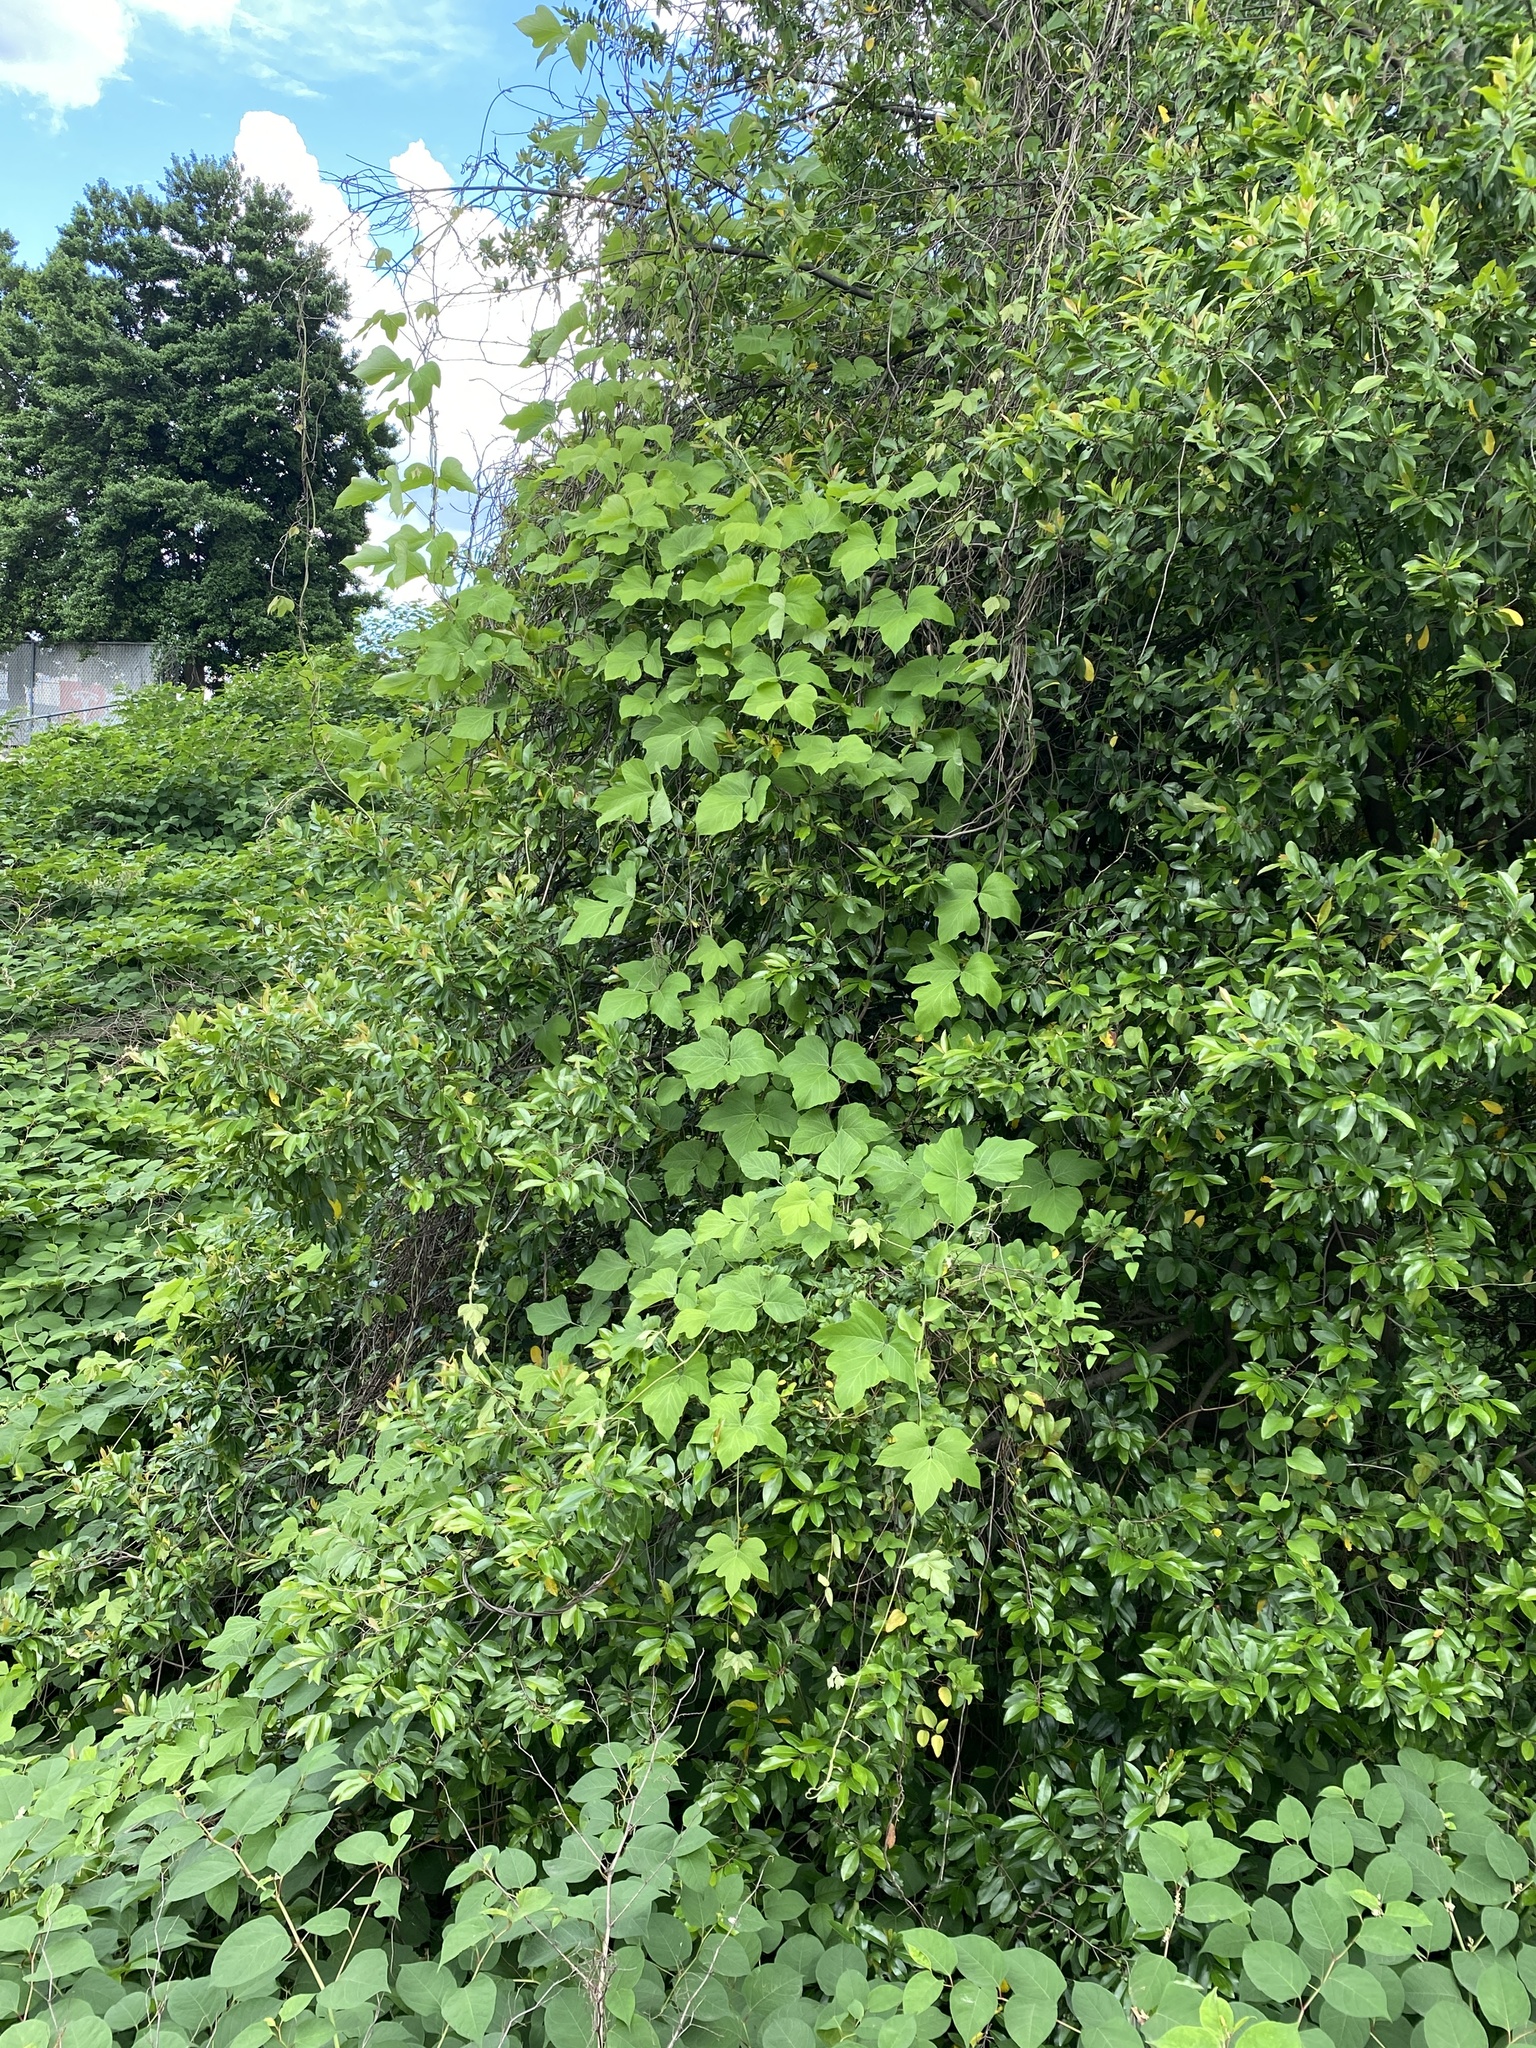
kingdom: Plantae
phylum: Tracheophyta
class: Magnoliopsida
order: Fabales
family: Fabaceae
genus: Pueraria
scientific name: Pueraria montana
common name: Kudzu
